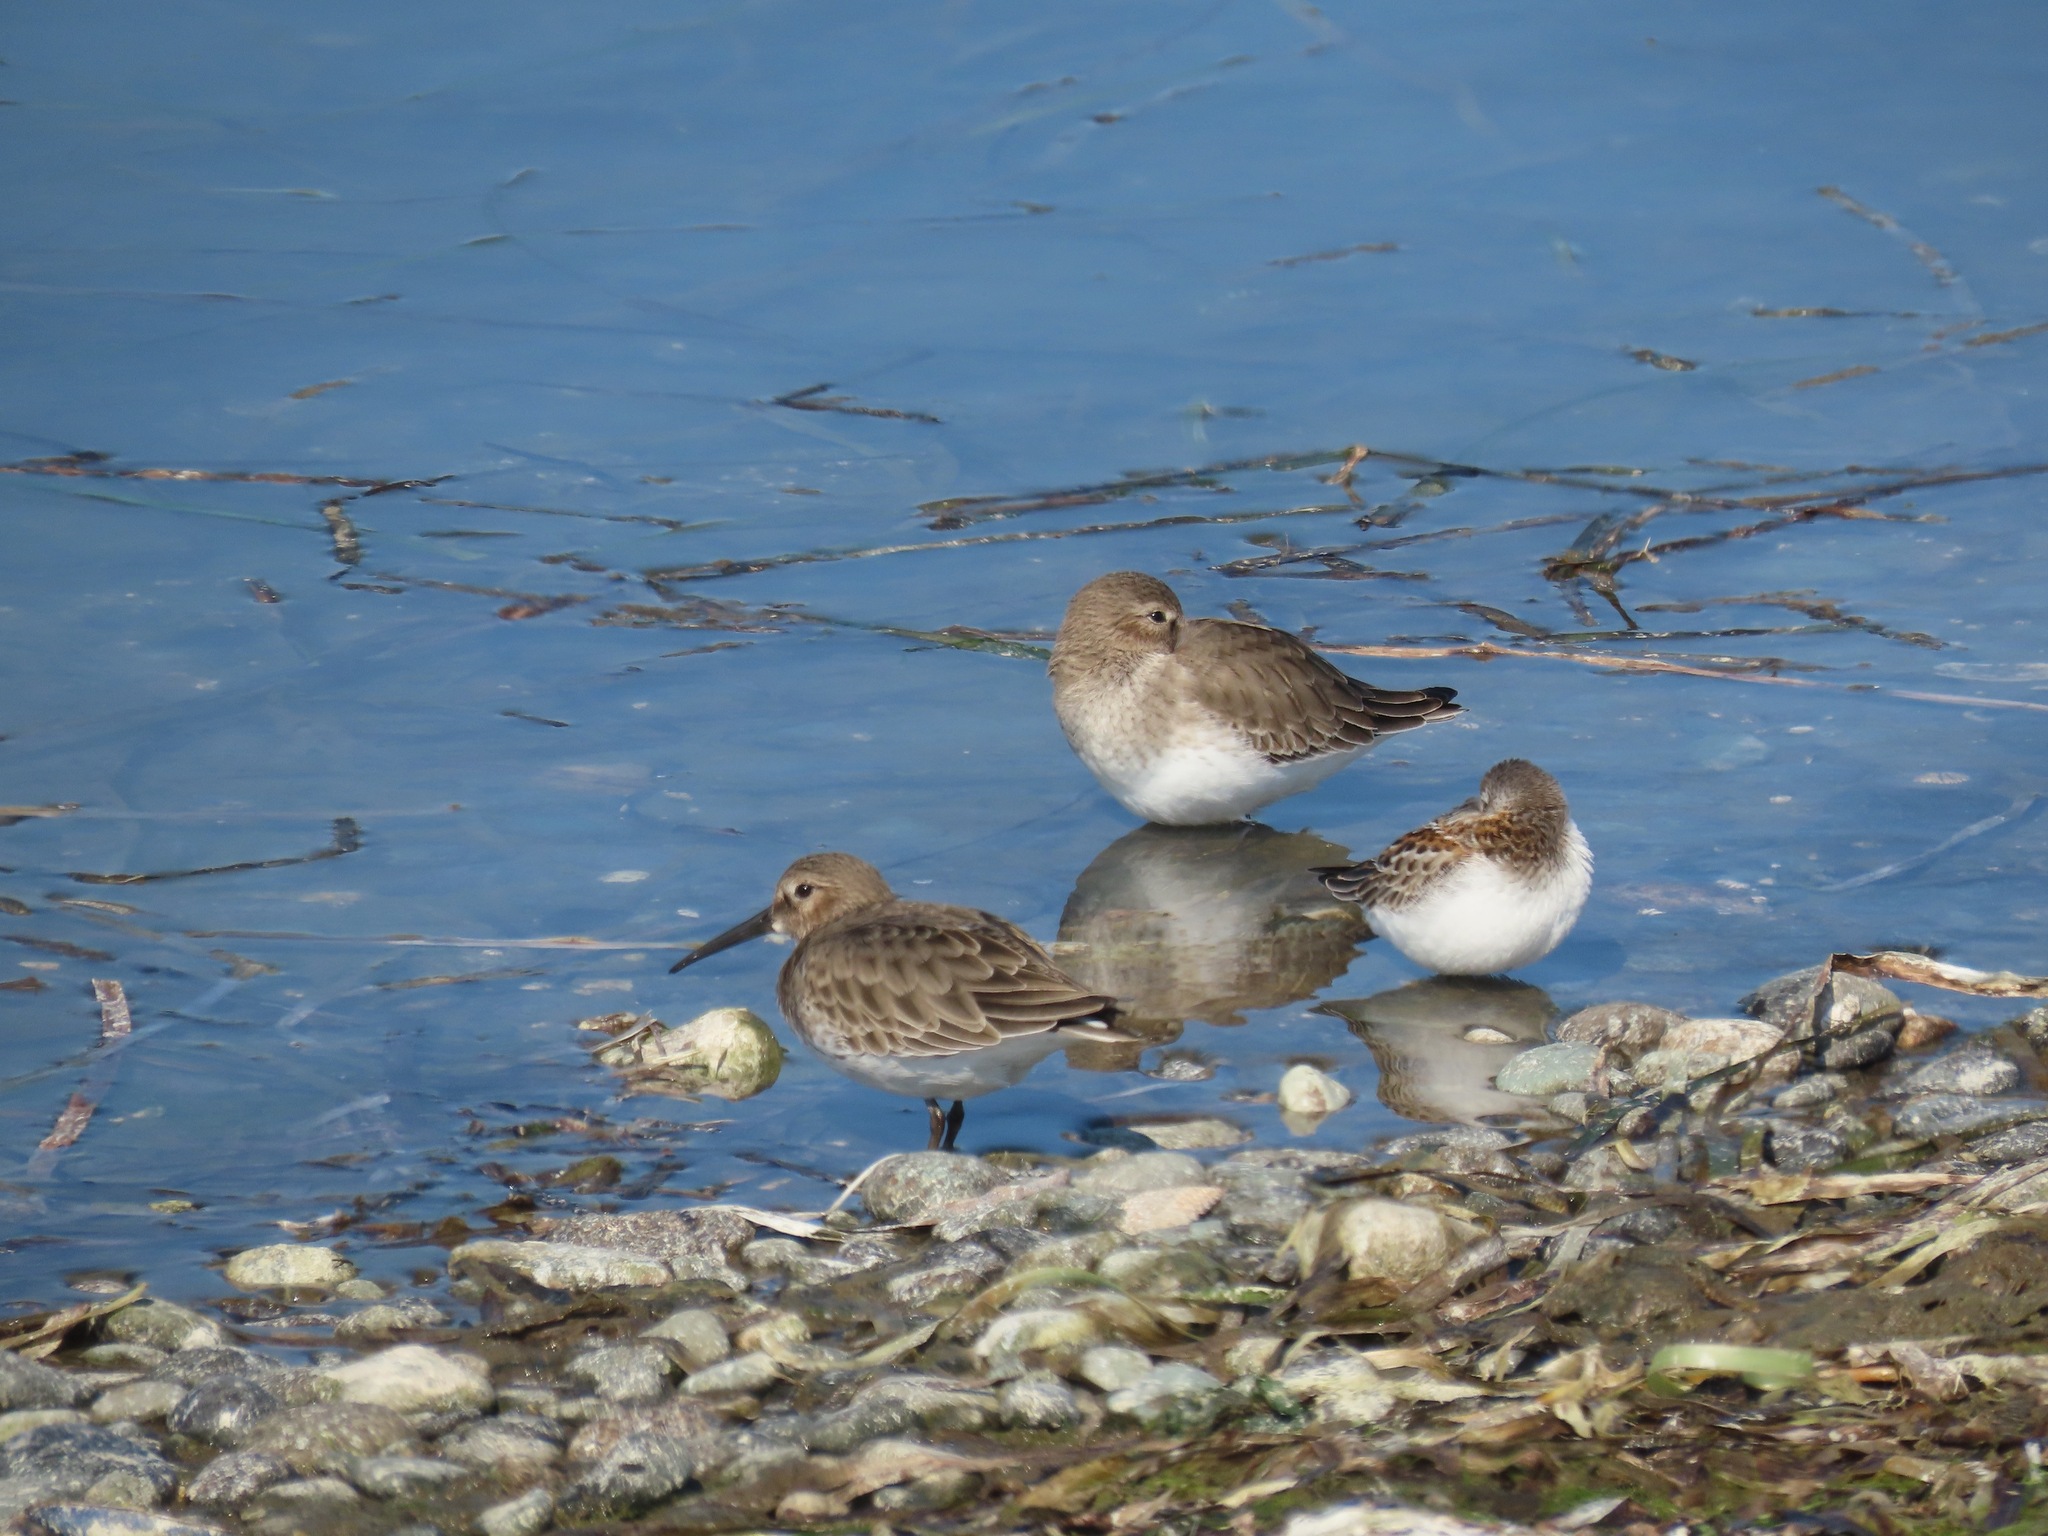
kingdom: Animalia
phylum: Chordata
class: Aves
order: Charadriiformes
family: Scolopacidae
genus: Calidris
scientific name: Calidris alpina
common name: Dunlin
